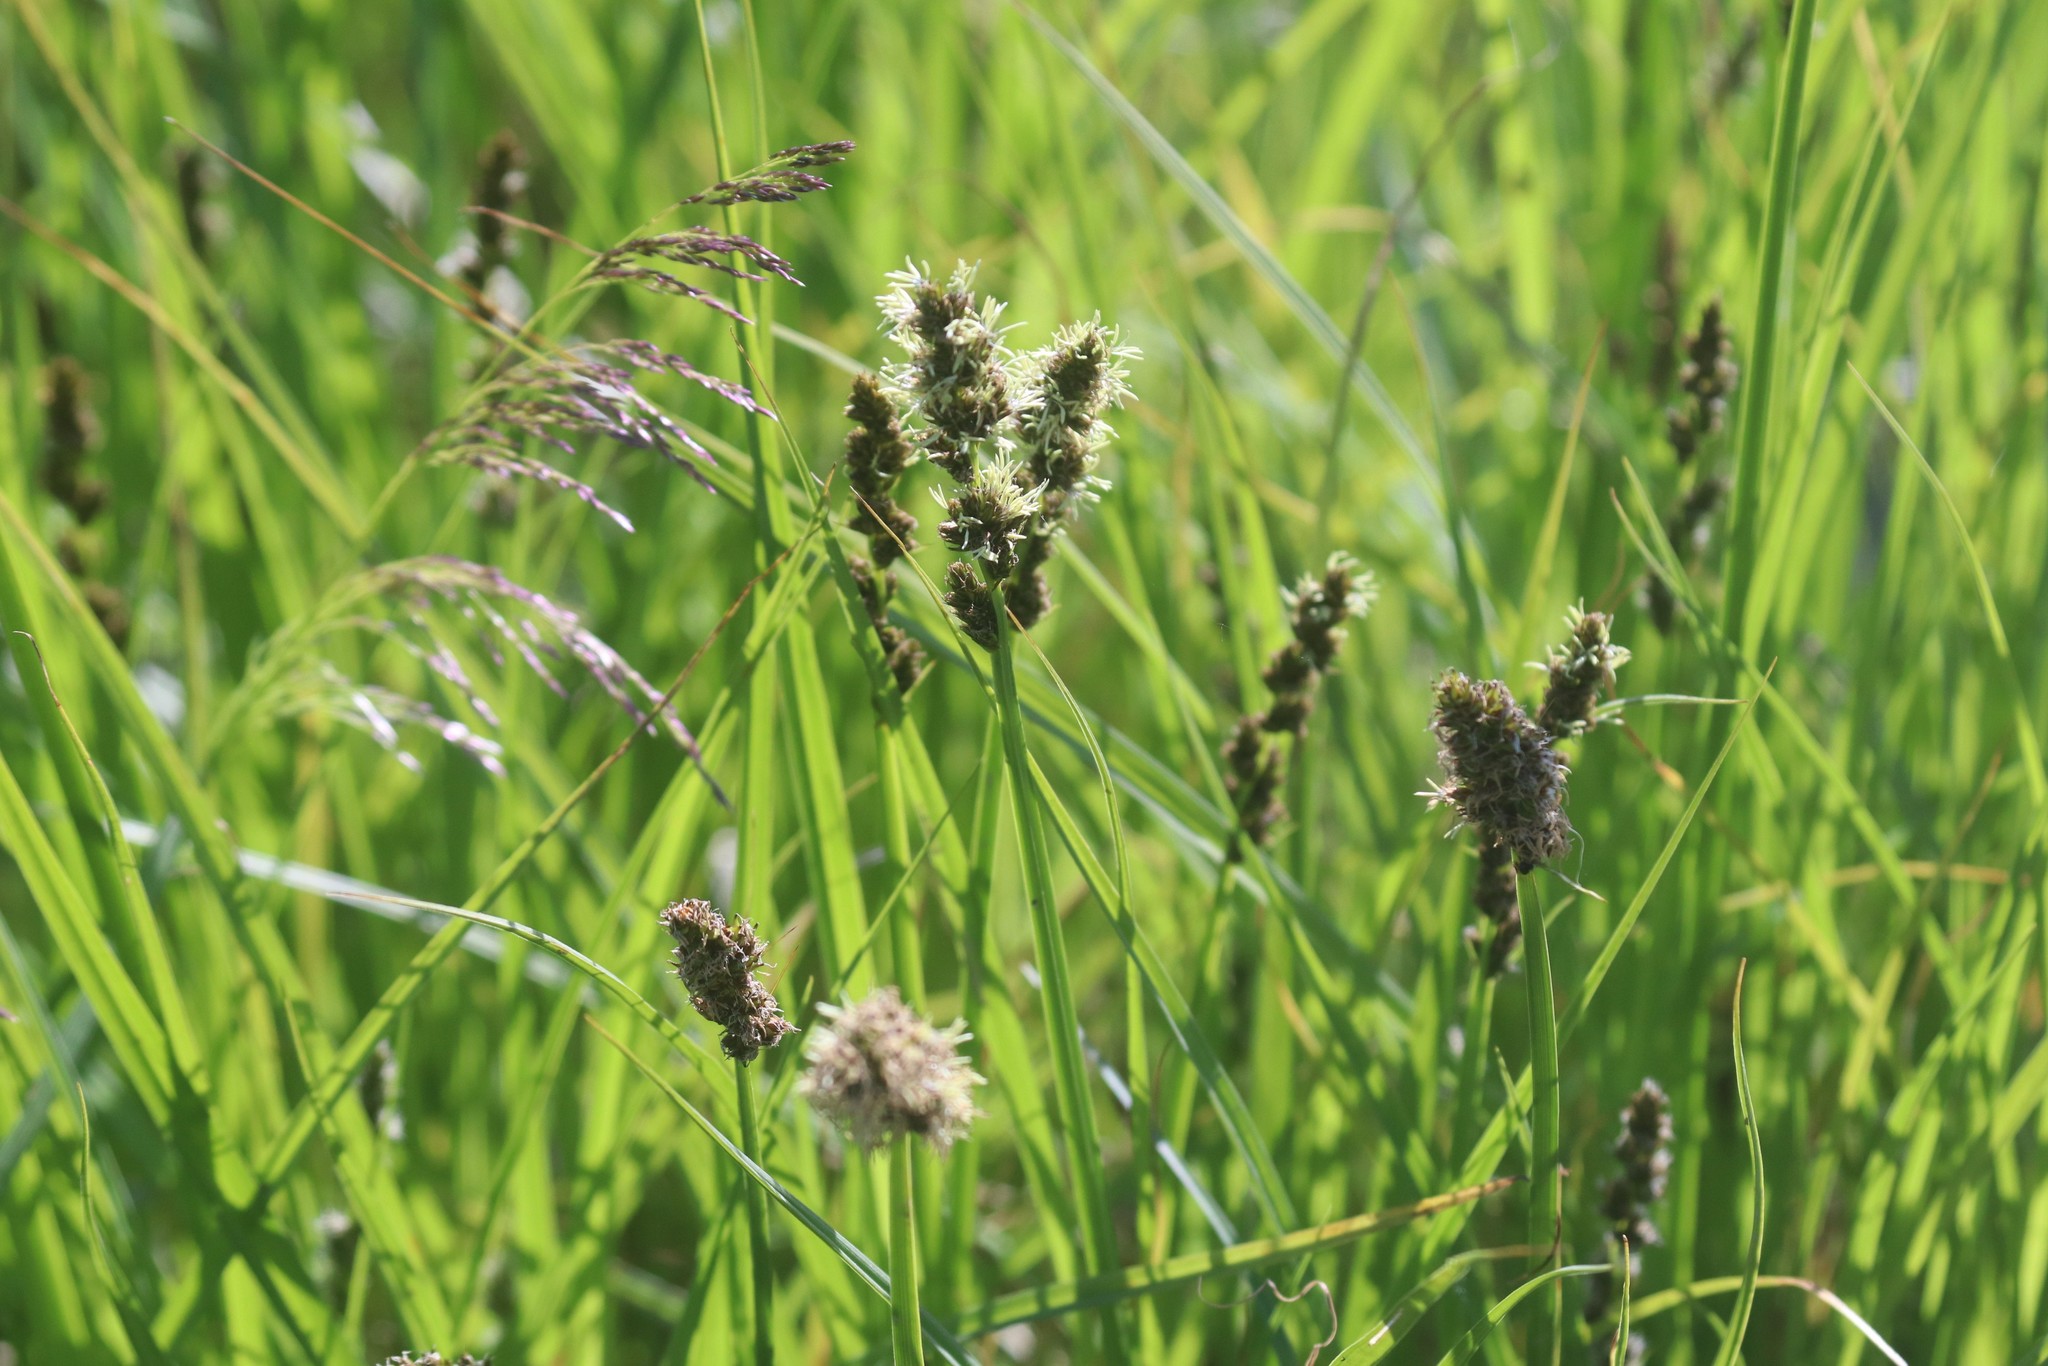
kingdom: Plantae
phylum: Tracheophyta
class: Liliopsida
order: Poales
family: Cyperaceae
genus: Carex
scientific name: Carex vulpina
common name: True fox-sedge
